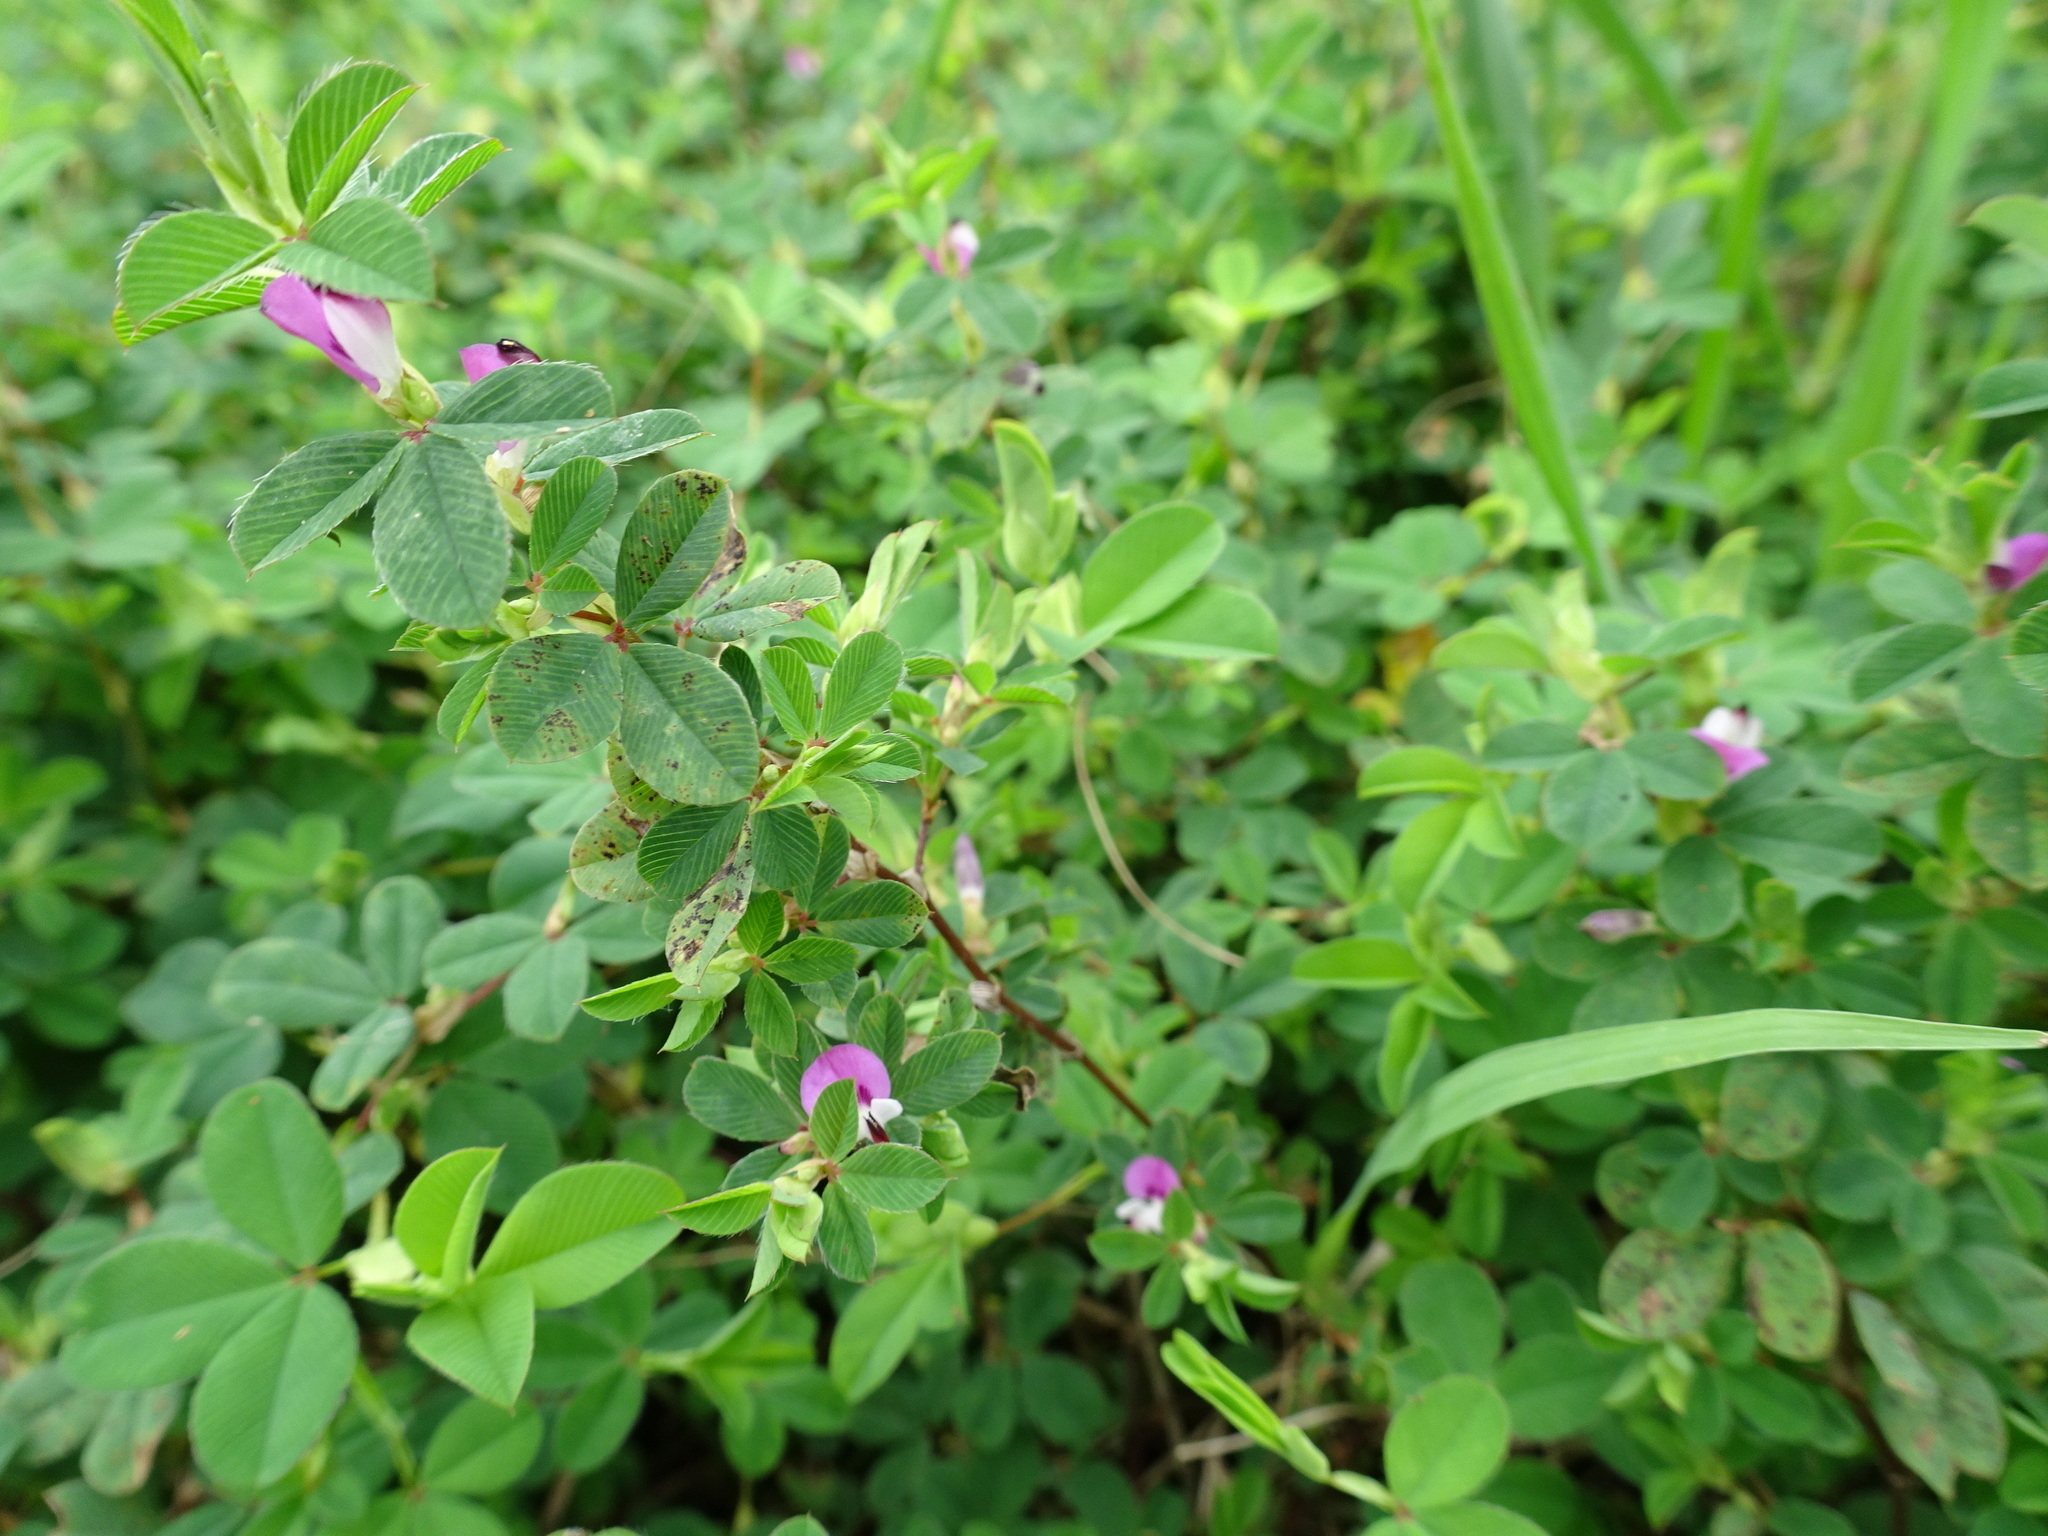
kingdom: Plantae
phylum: Tracheophyta
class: Magnoliopsida
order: Fabales
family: Fabaceae
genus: Kummerowia
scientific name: Kummerowia striata
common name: Japanese clover
